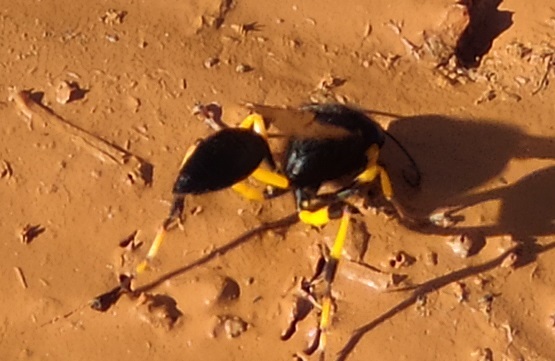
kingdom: Animalia
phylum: Arthropoda
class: Insecta
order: Hymenoptera
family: Sphecidae
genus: Sceliphron
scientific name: Sceliphron spirifex
